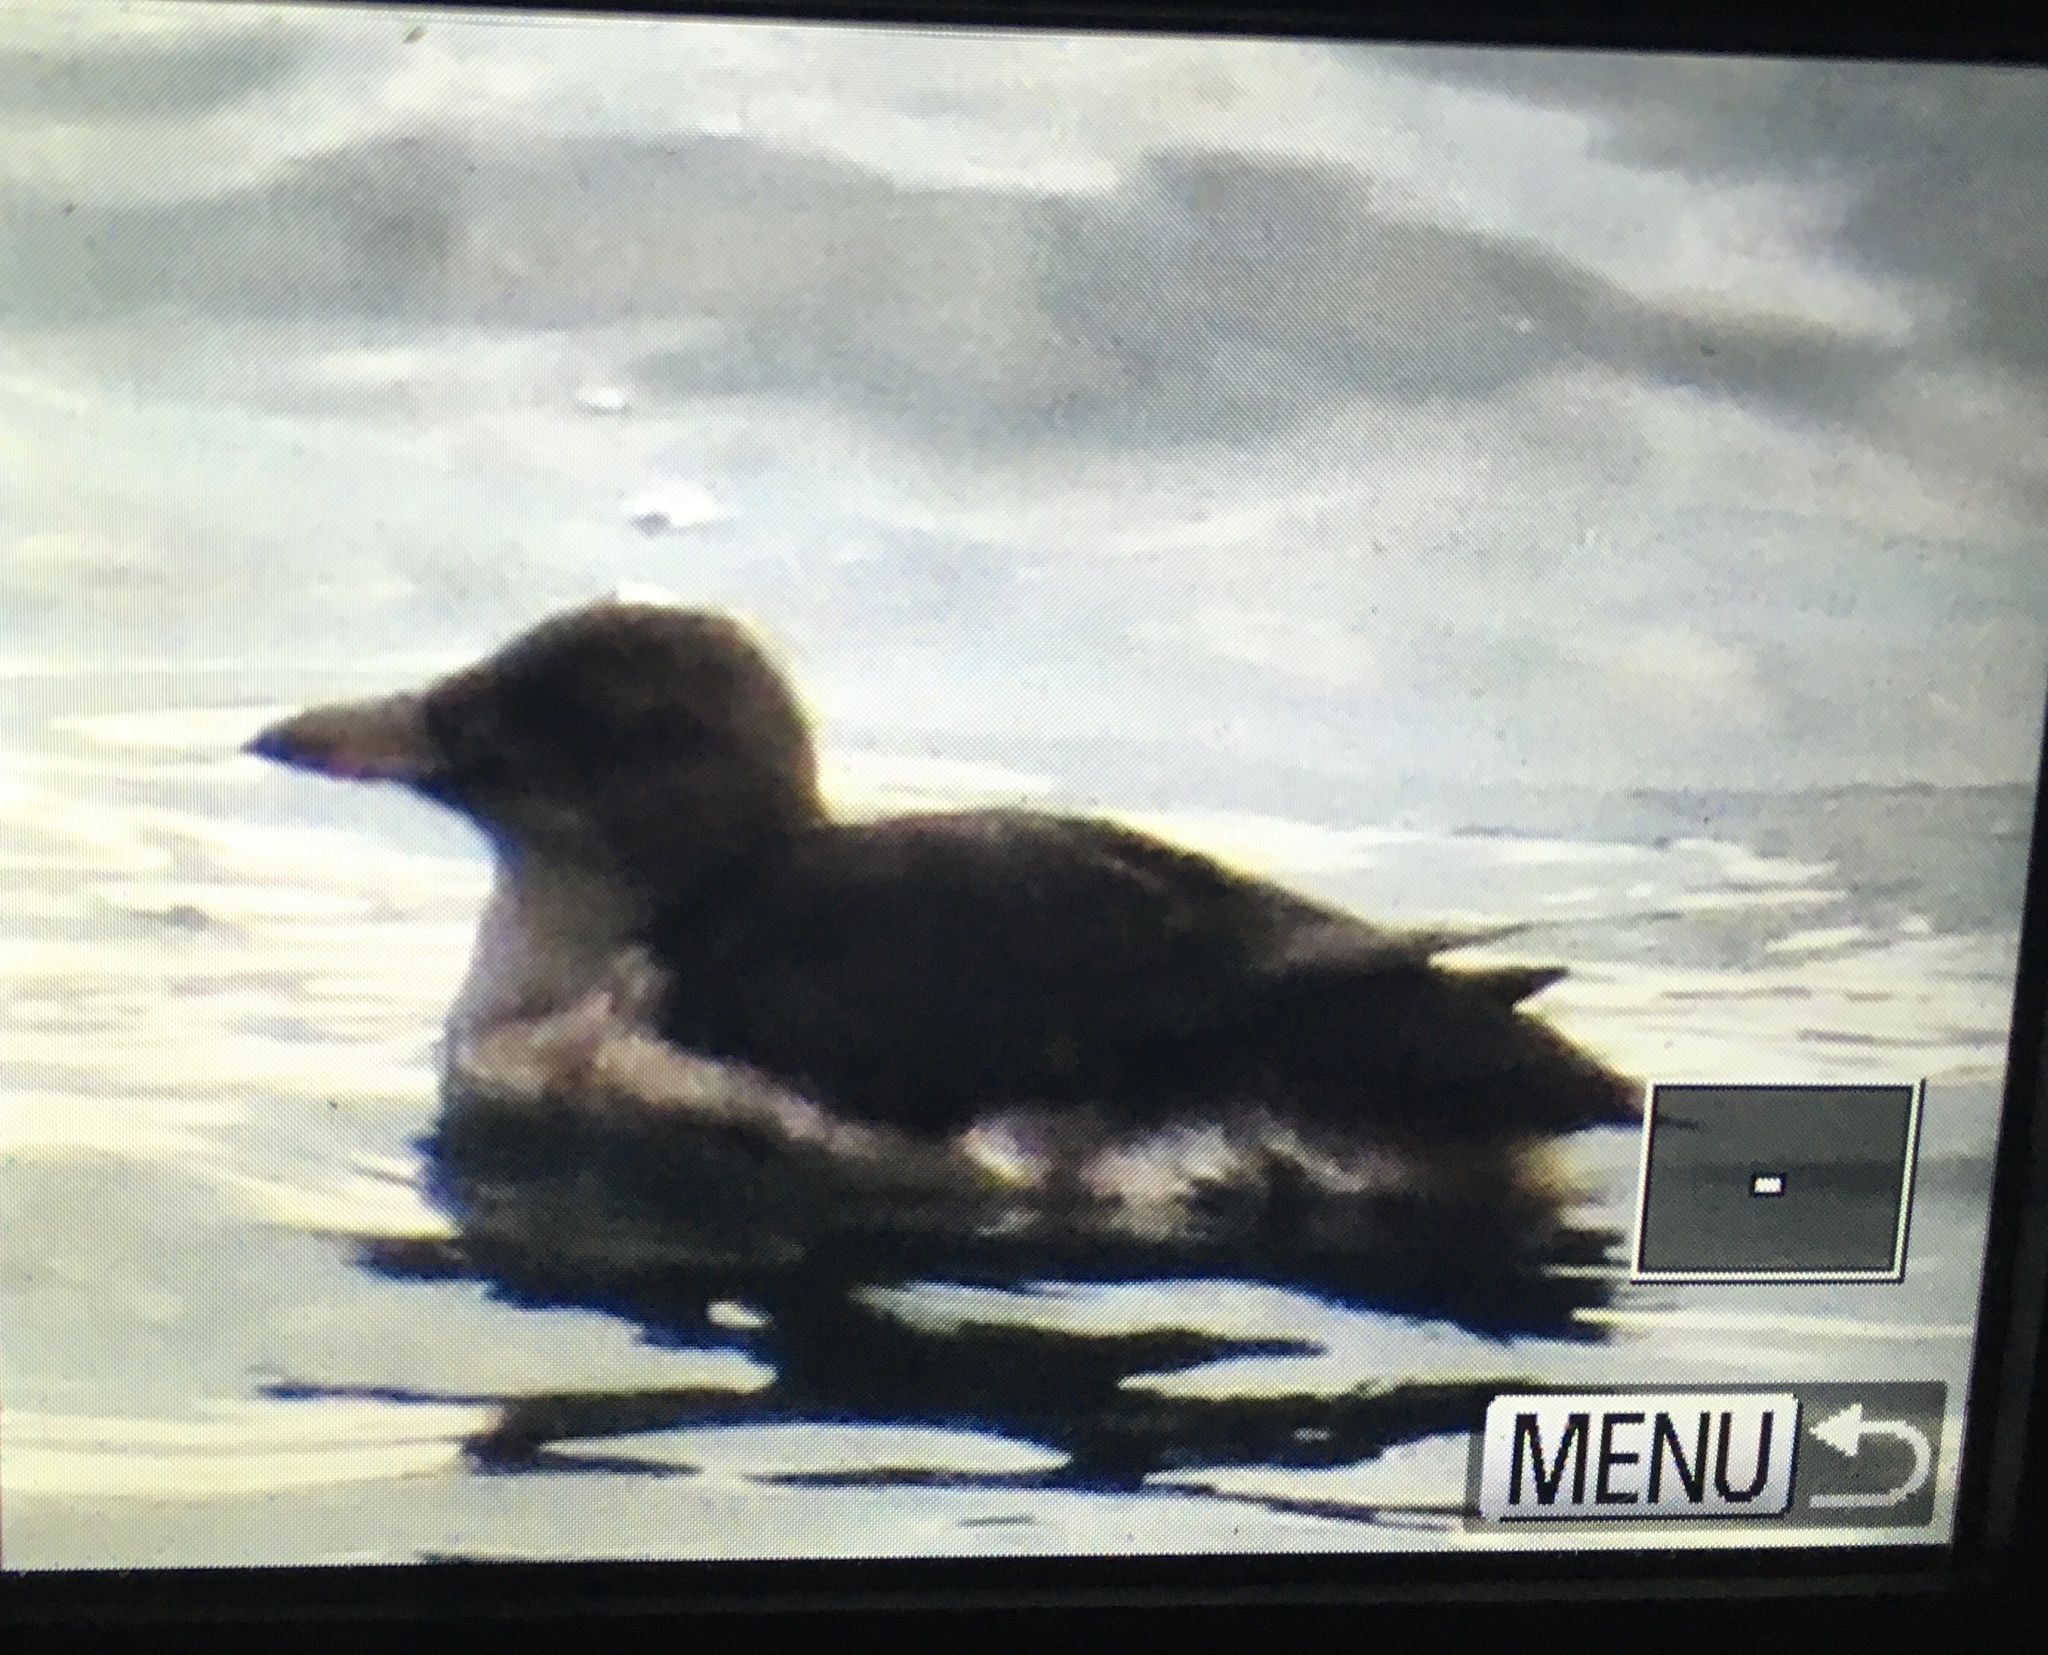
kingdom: Animalia
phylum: Chordata
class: Aves
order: Charadriiformes
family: Alcidae
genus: Cerorhinca
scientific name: Cerorhinca monocerata
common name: Rhinoceros auklet
